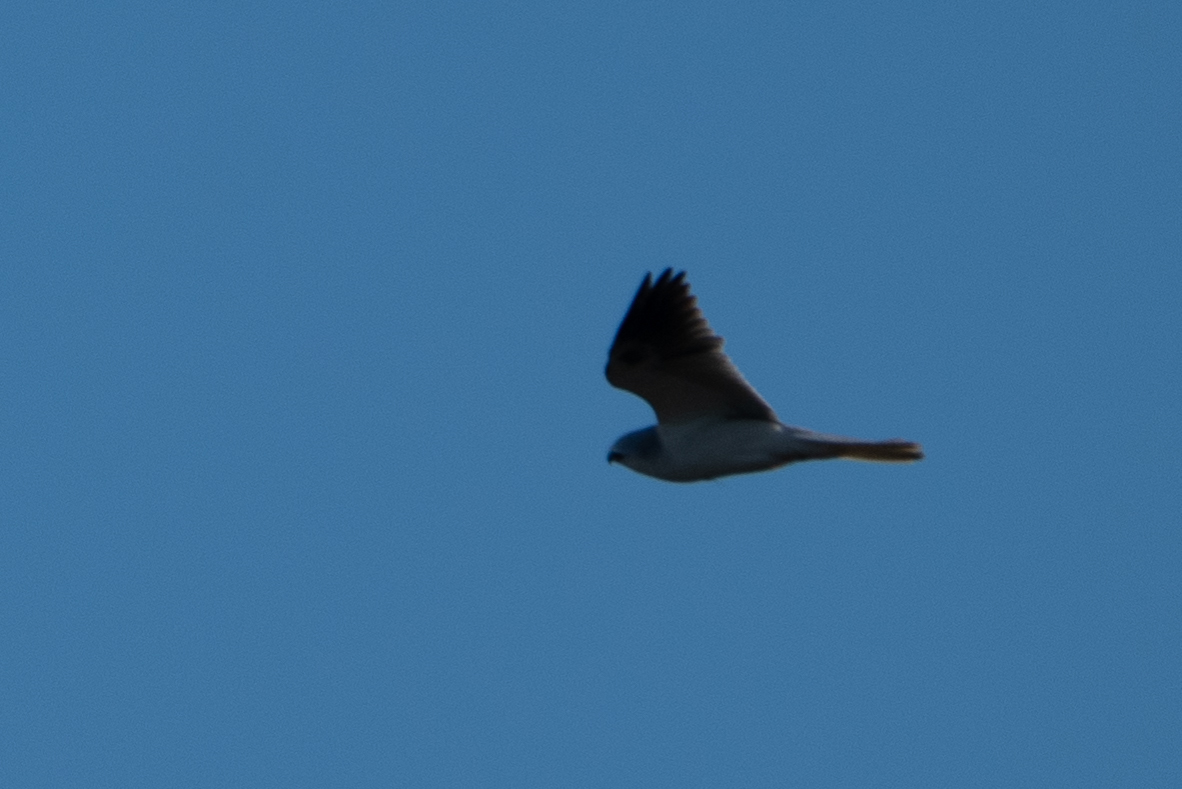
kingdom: Animalia
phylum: Chordata
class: Aves
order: Accipitriformes
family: Accipitridae
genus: Elanus
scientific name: Elanus leucurus
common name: White-tailed kite
